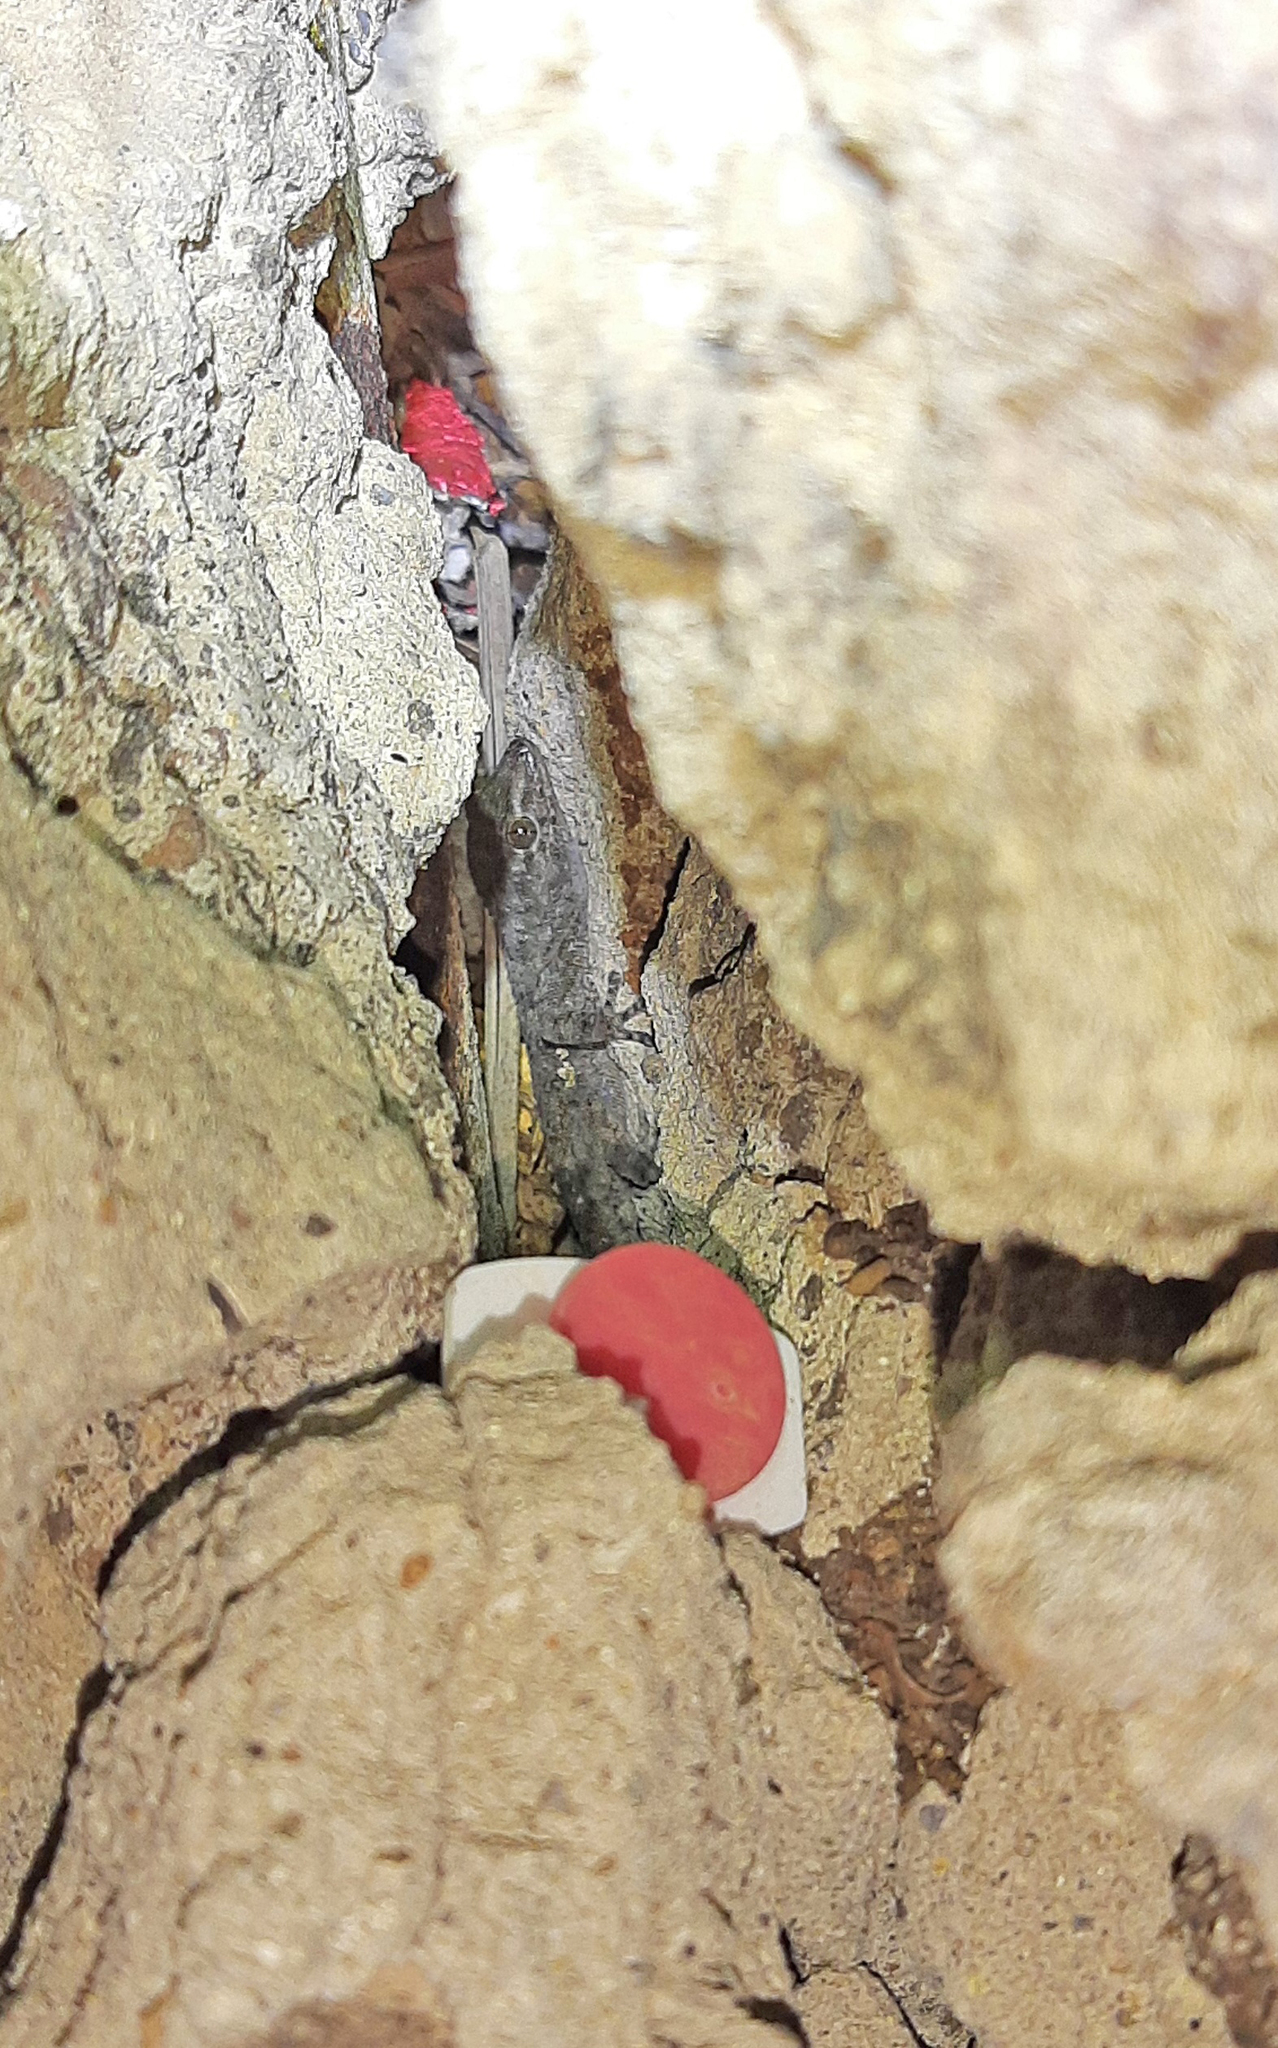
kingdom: Animalia
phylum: Chordata
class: Squamata
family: Phyllodactylidae
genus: Tarentola
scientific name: Tarentola delalandii
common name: Tenerife wall gecko
